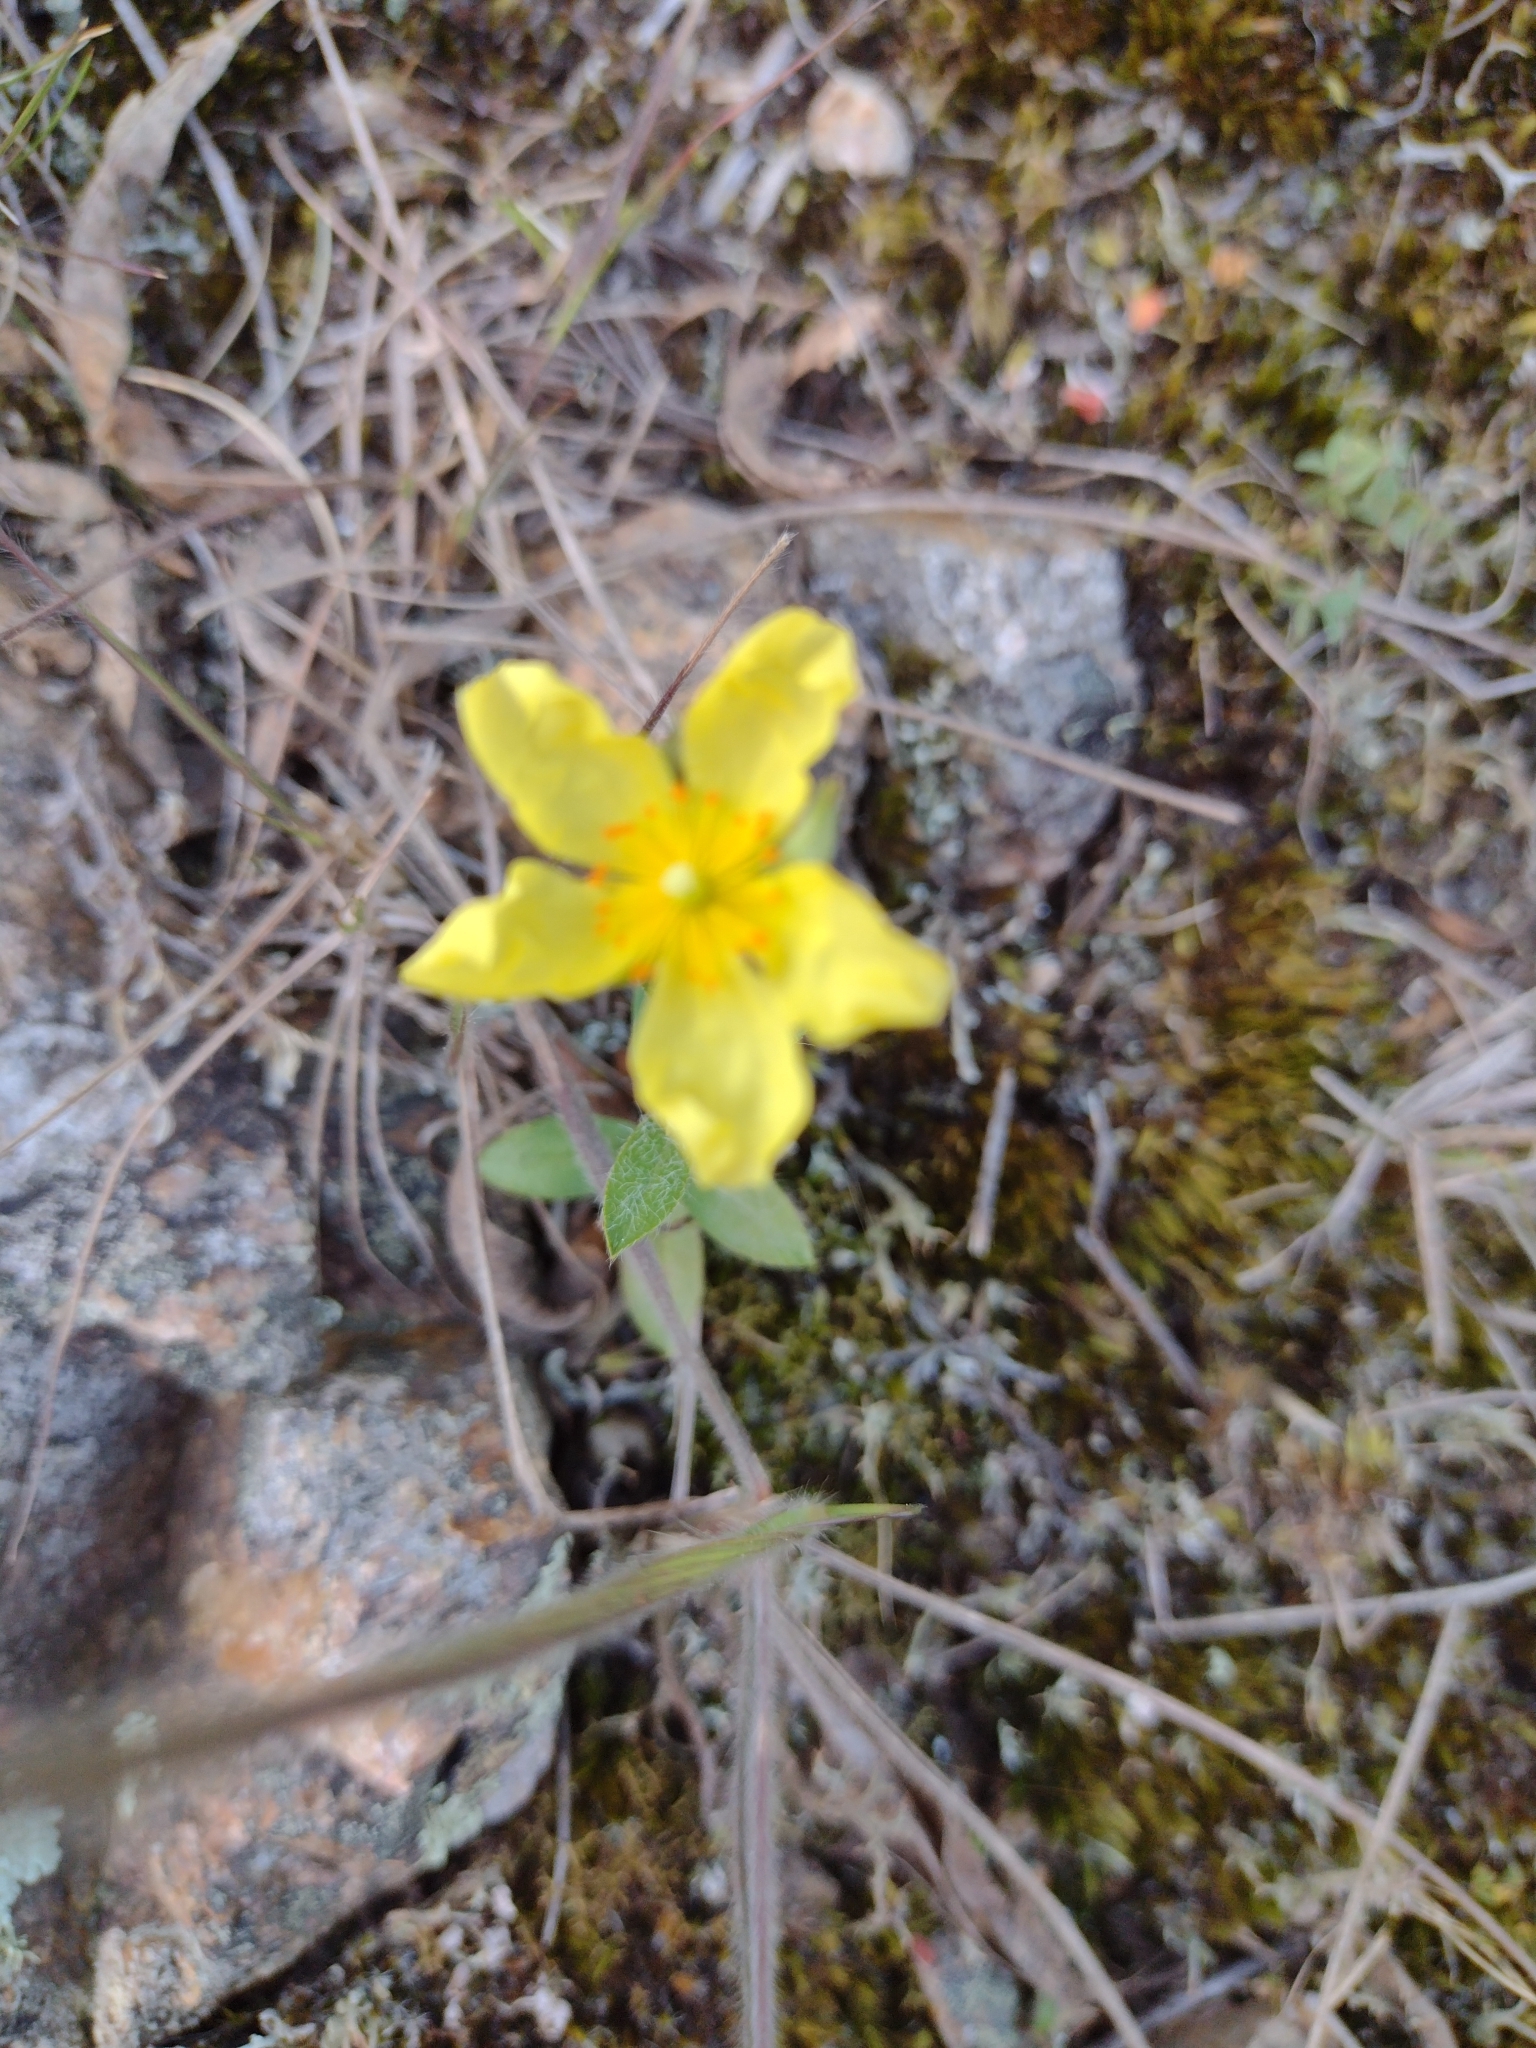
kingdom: Plantae
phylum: Tracheophyta
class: Magnoliopsida
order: Malvales
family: Cistaceae
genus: Crocanthemum
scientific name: Crocanthemum brasiliensis
